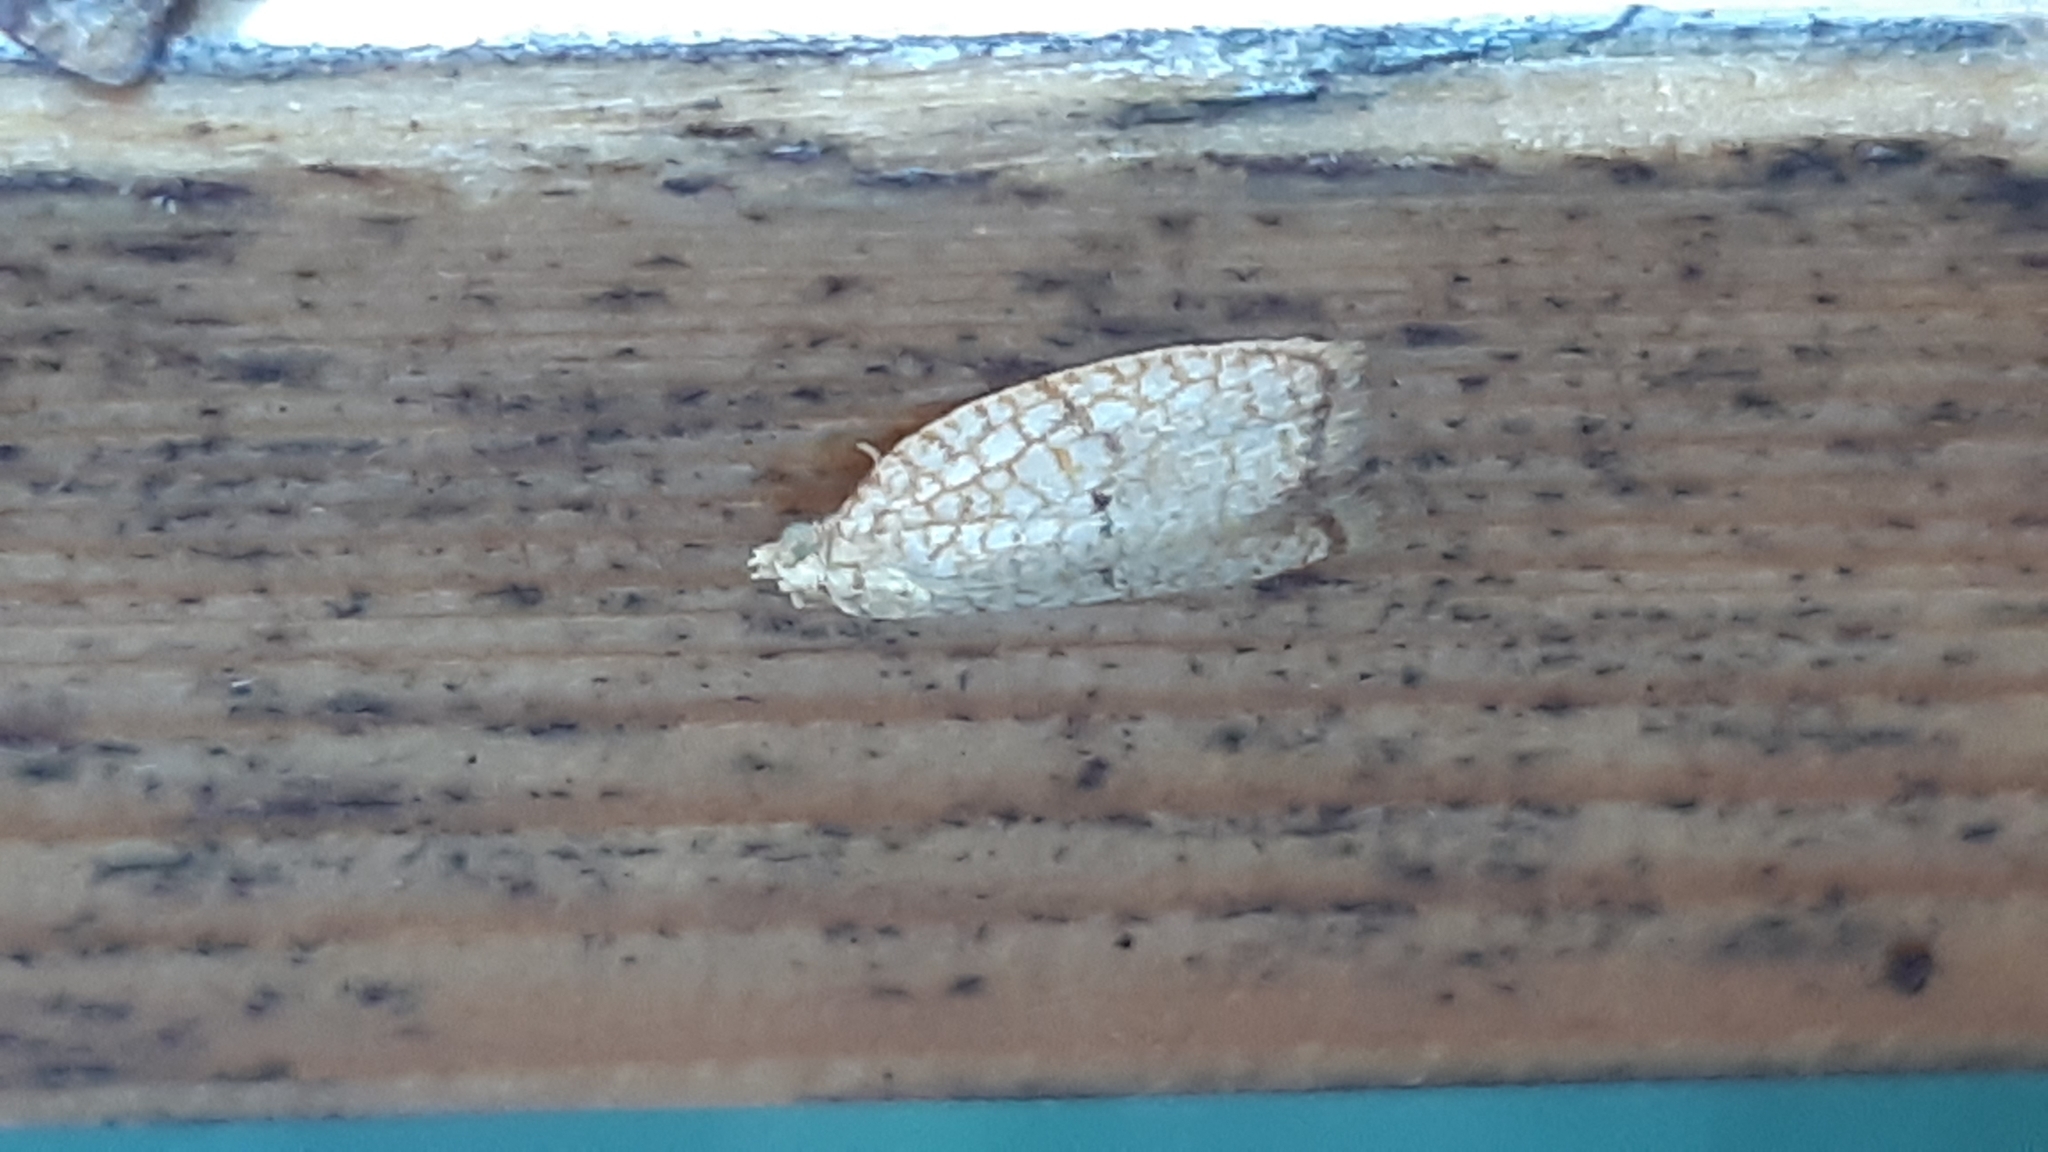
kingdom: Animalia
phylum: Arthropoda
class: Insecta
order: Lepidoptera
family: Tortricidae
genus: Acleris
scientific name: Acleris forsskaleana
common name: Maple button
